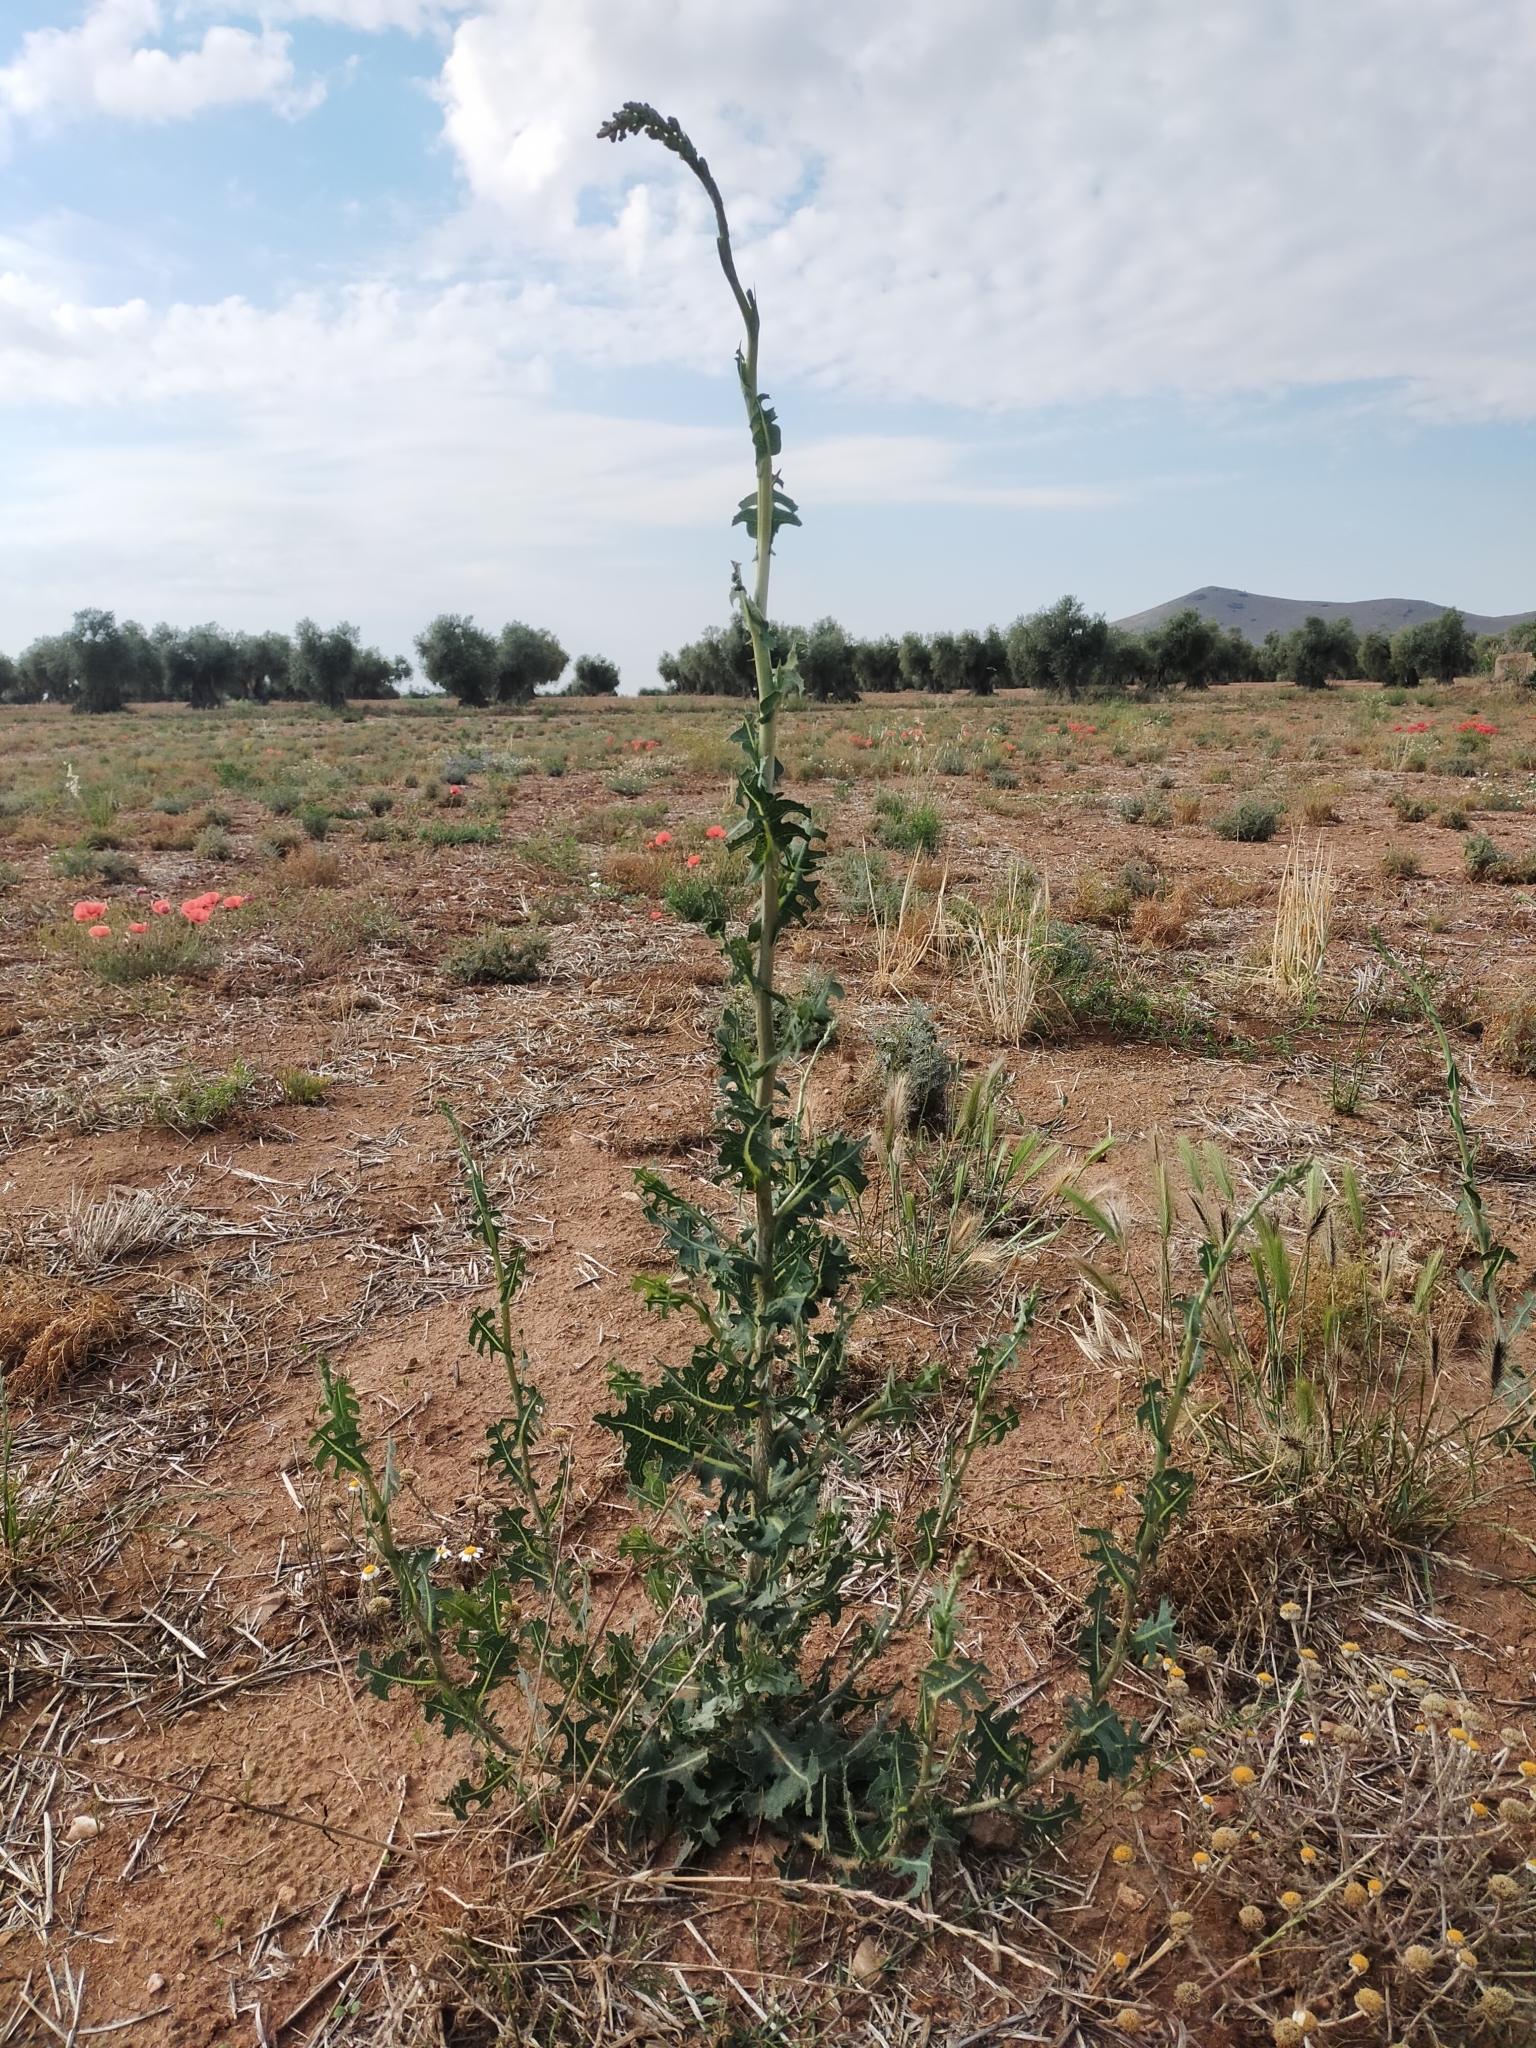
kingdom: Plantae
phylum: Tracheophyta
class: Magnoliopsida
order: Asterales
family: Asteraceae
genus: Lactuca
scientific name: Lactuca serriola
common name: Prickly lettuce
